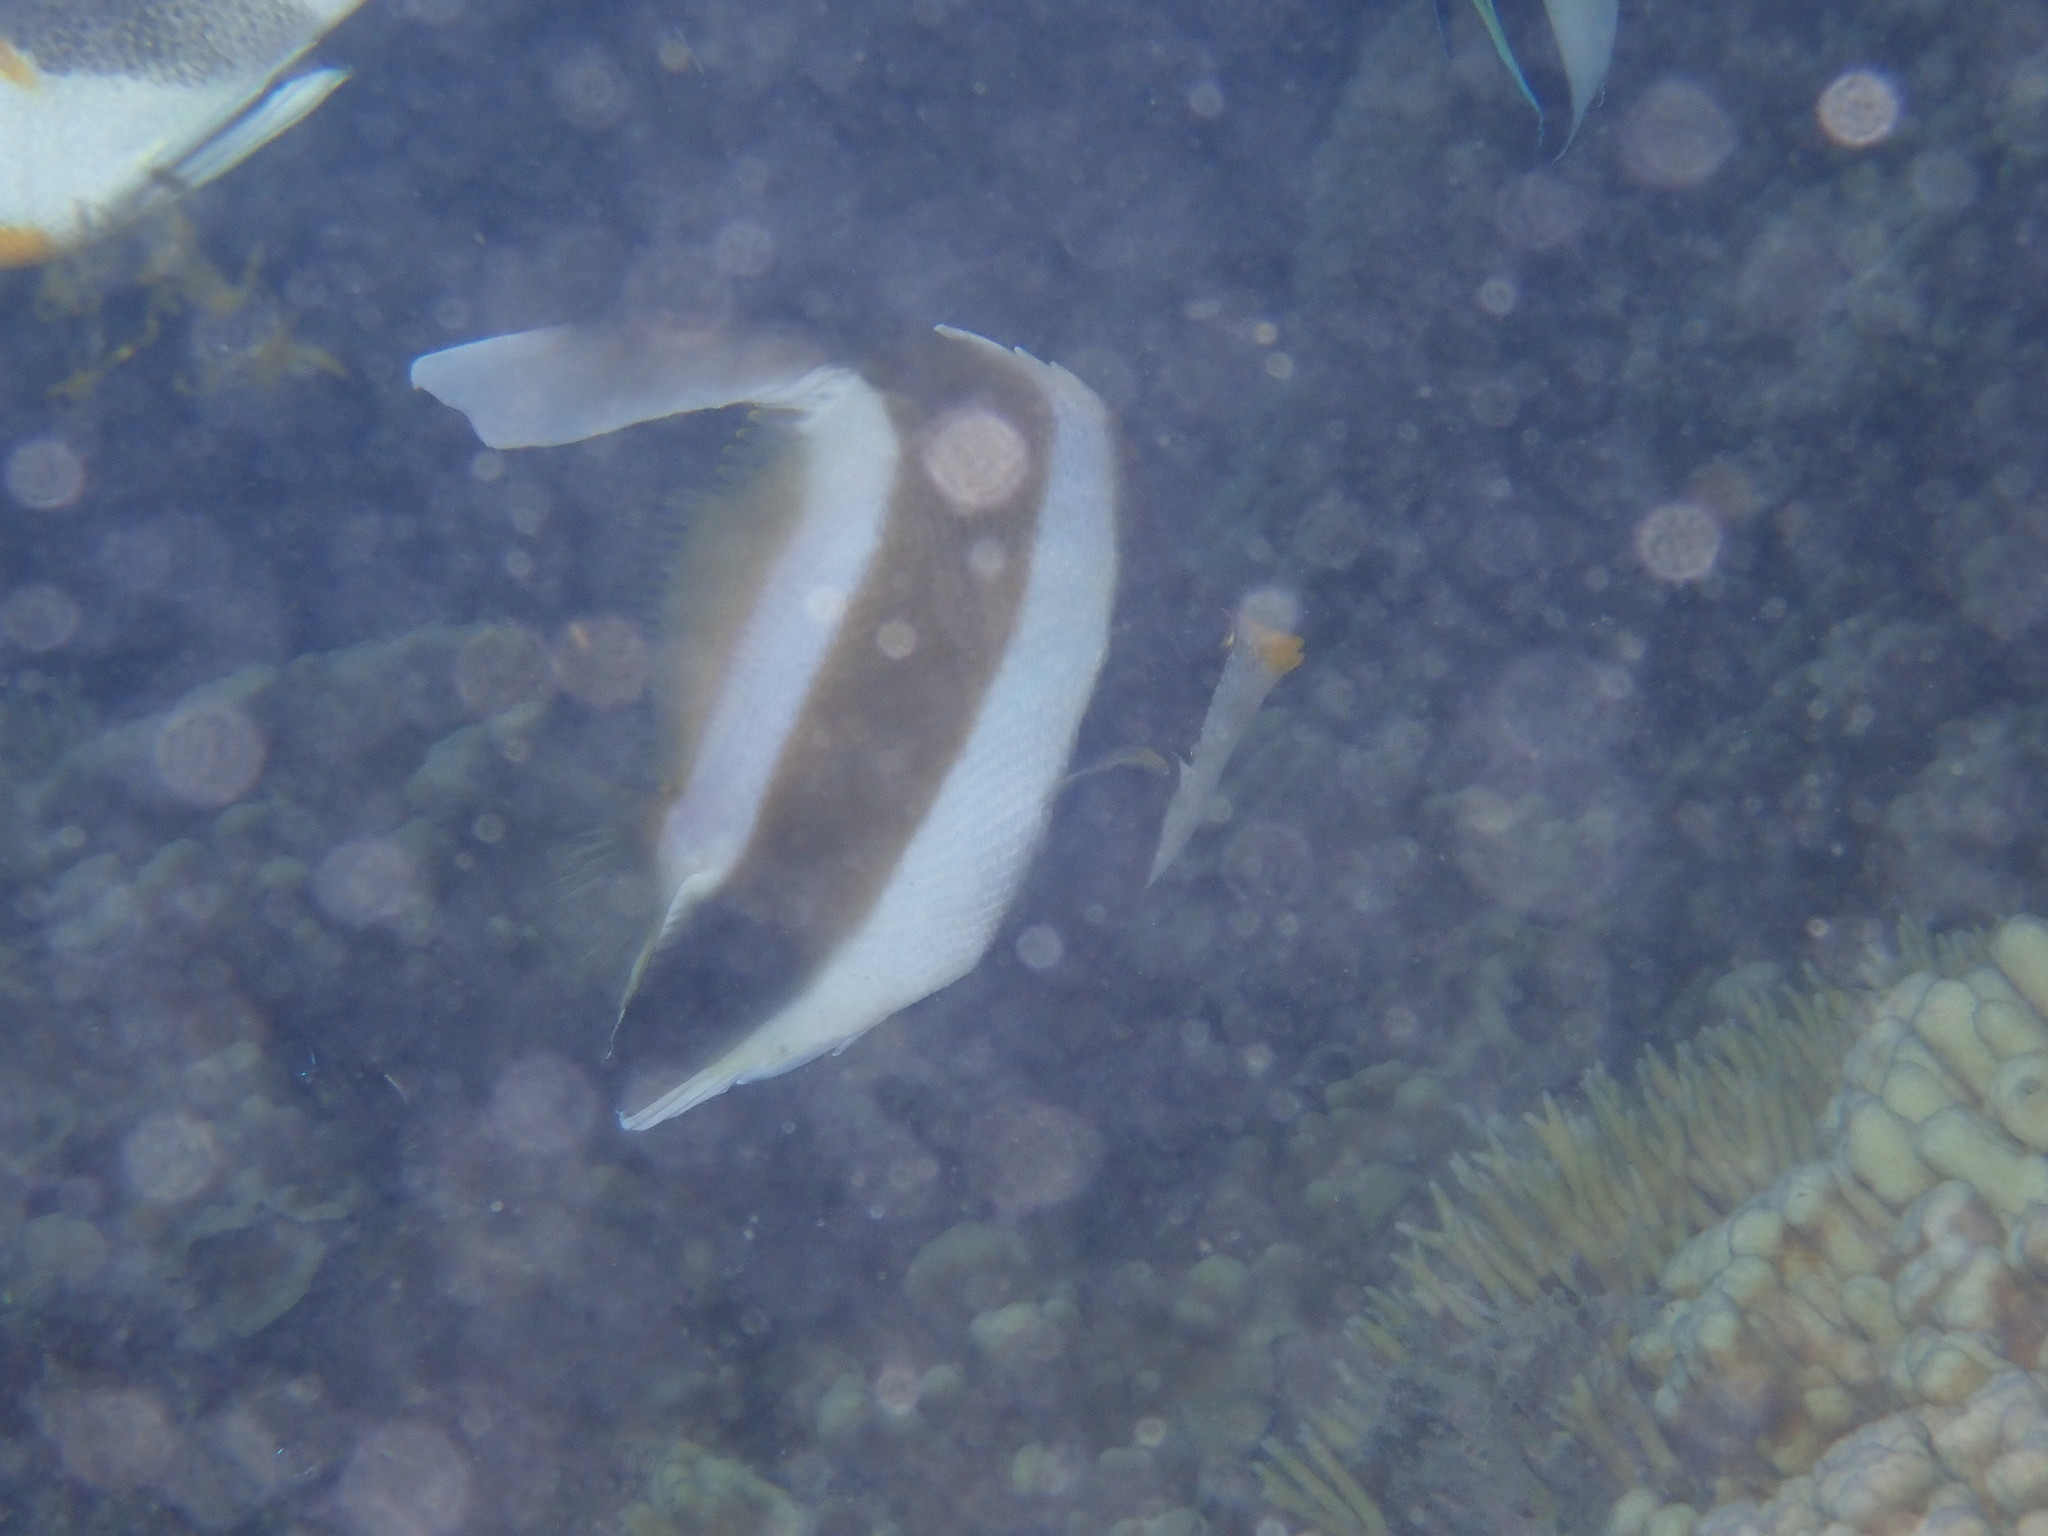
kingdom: Animalia
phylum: Chordata
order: Perciformes
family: Chaetodontidae
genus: Heniochus
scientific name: Heniochus chrysostomus
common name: Horned bannerfish
